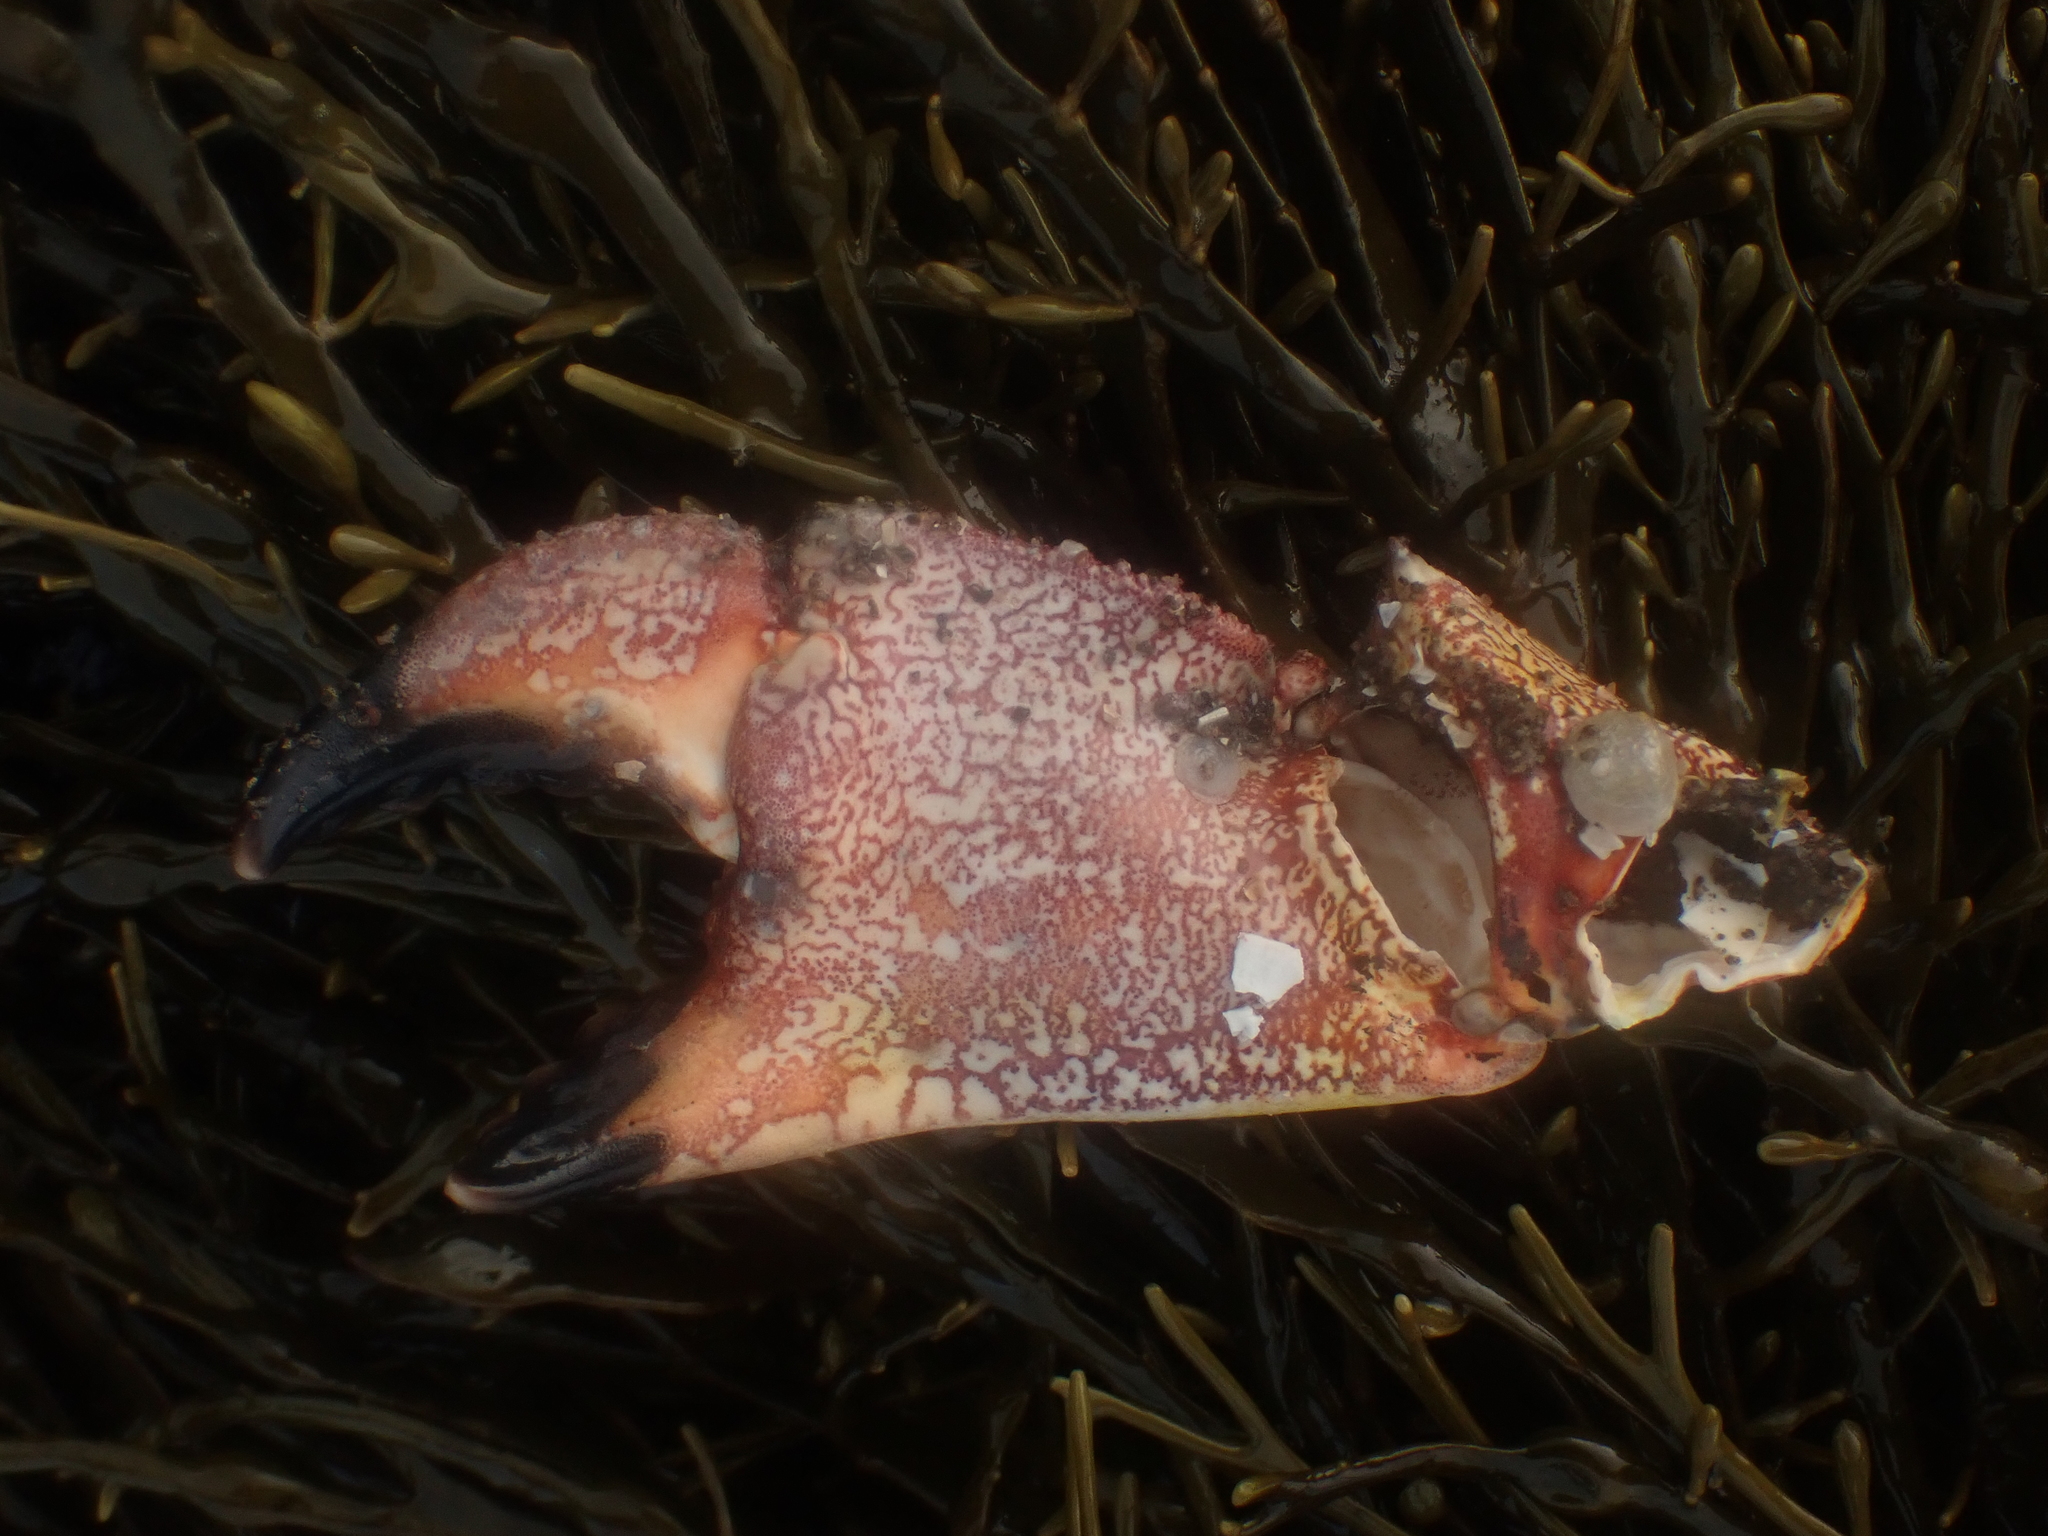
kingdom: Animalia
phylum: Arthropoda
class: Malacostraca
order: Decapoda
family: Cancridae
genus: Cancer
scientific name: Cancer borealis
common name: Jonah crab
